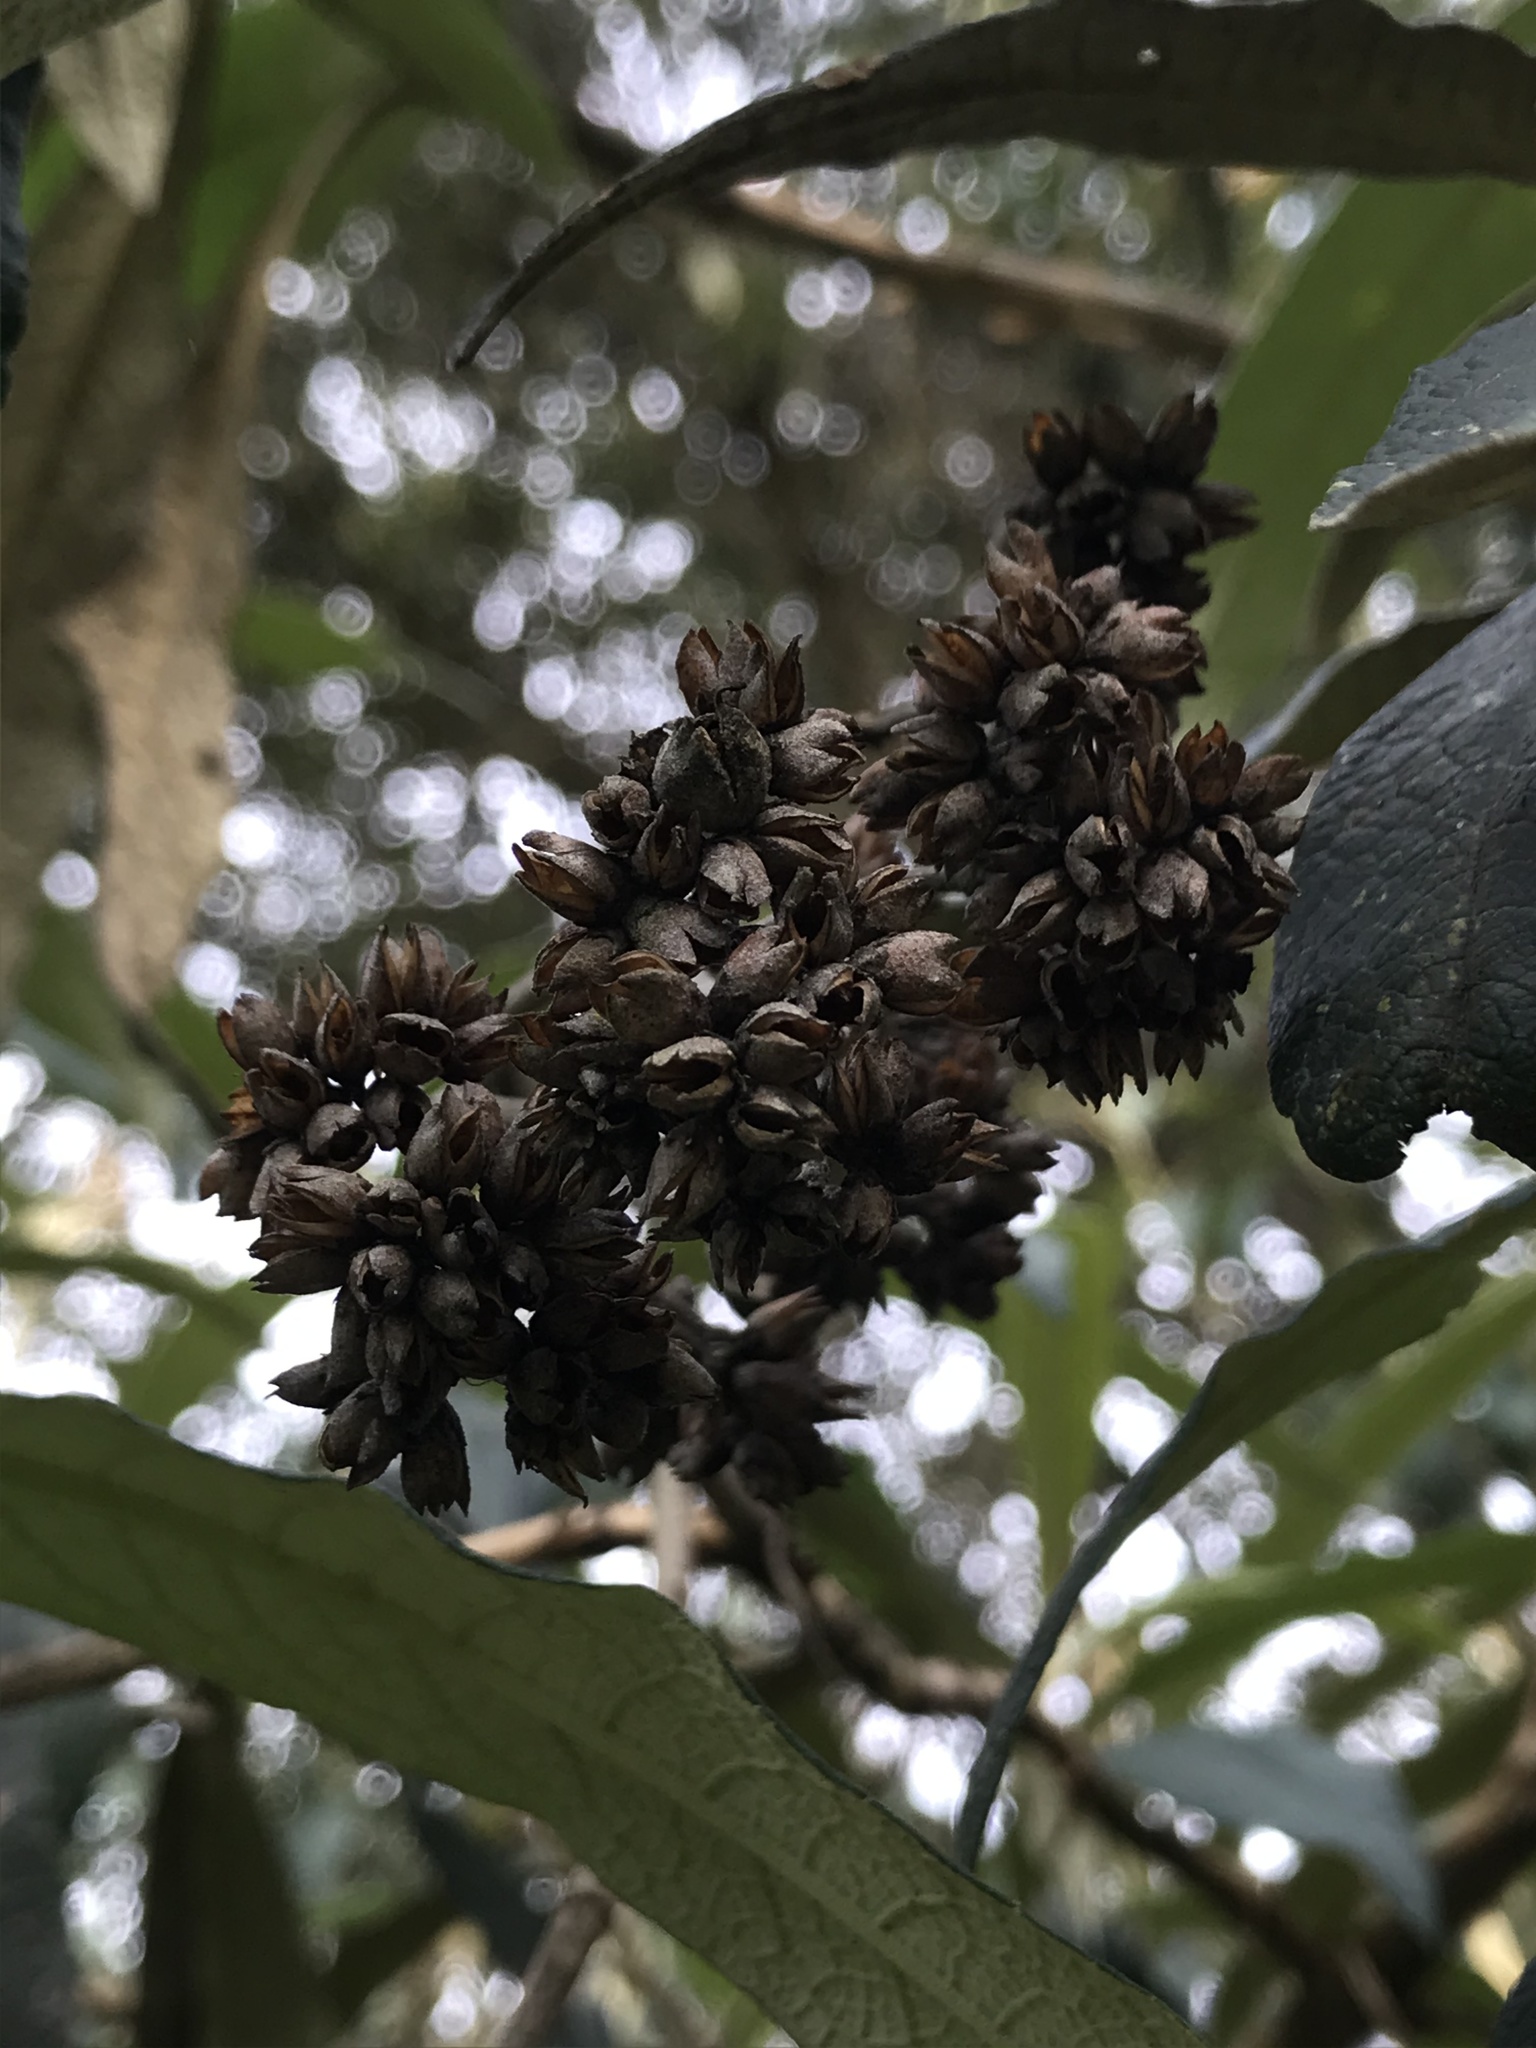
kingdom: Plantae
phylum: Tracheophyta
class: Magnoliopsida
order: Lamiales
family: Scrophulariaceae
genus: Buddleja
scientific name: Buddleja incana
